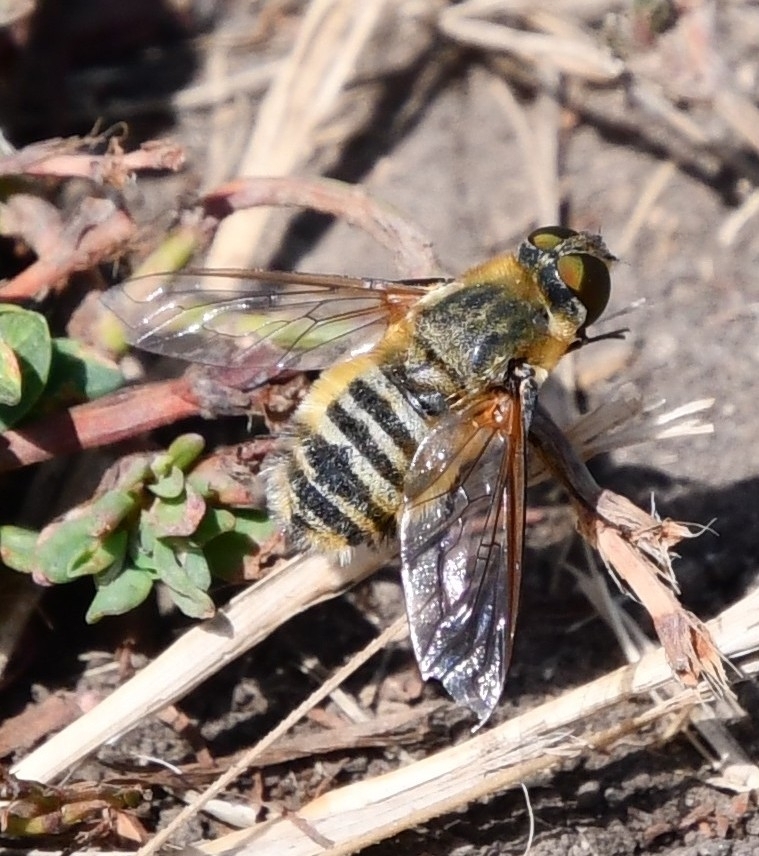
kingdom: Animalia
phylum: Arthropoda
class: Insecta
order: Diptera
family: Bombyliidae
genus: Villa
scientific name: Villa hottentotta
